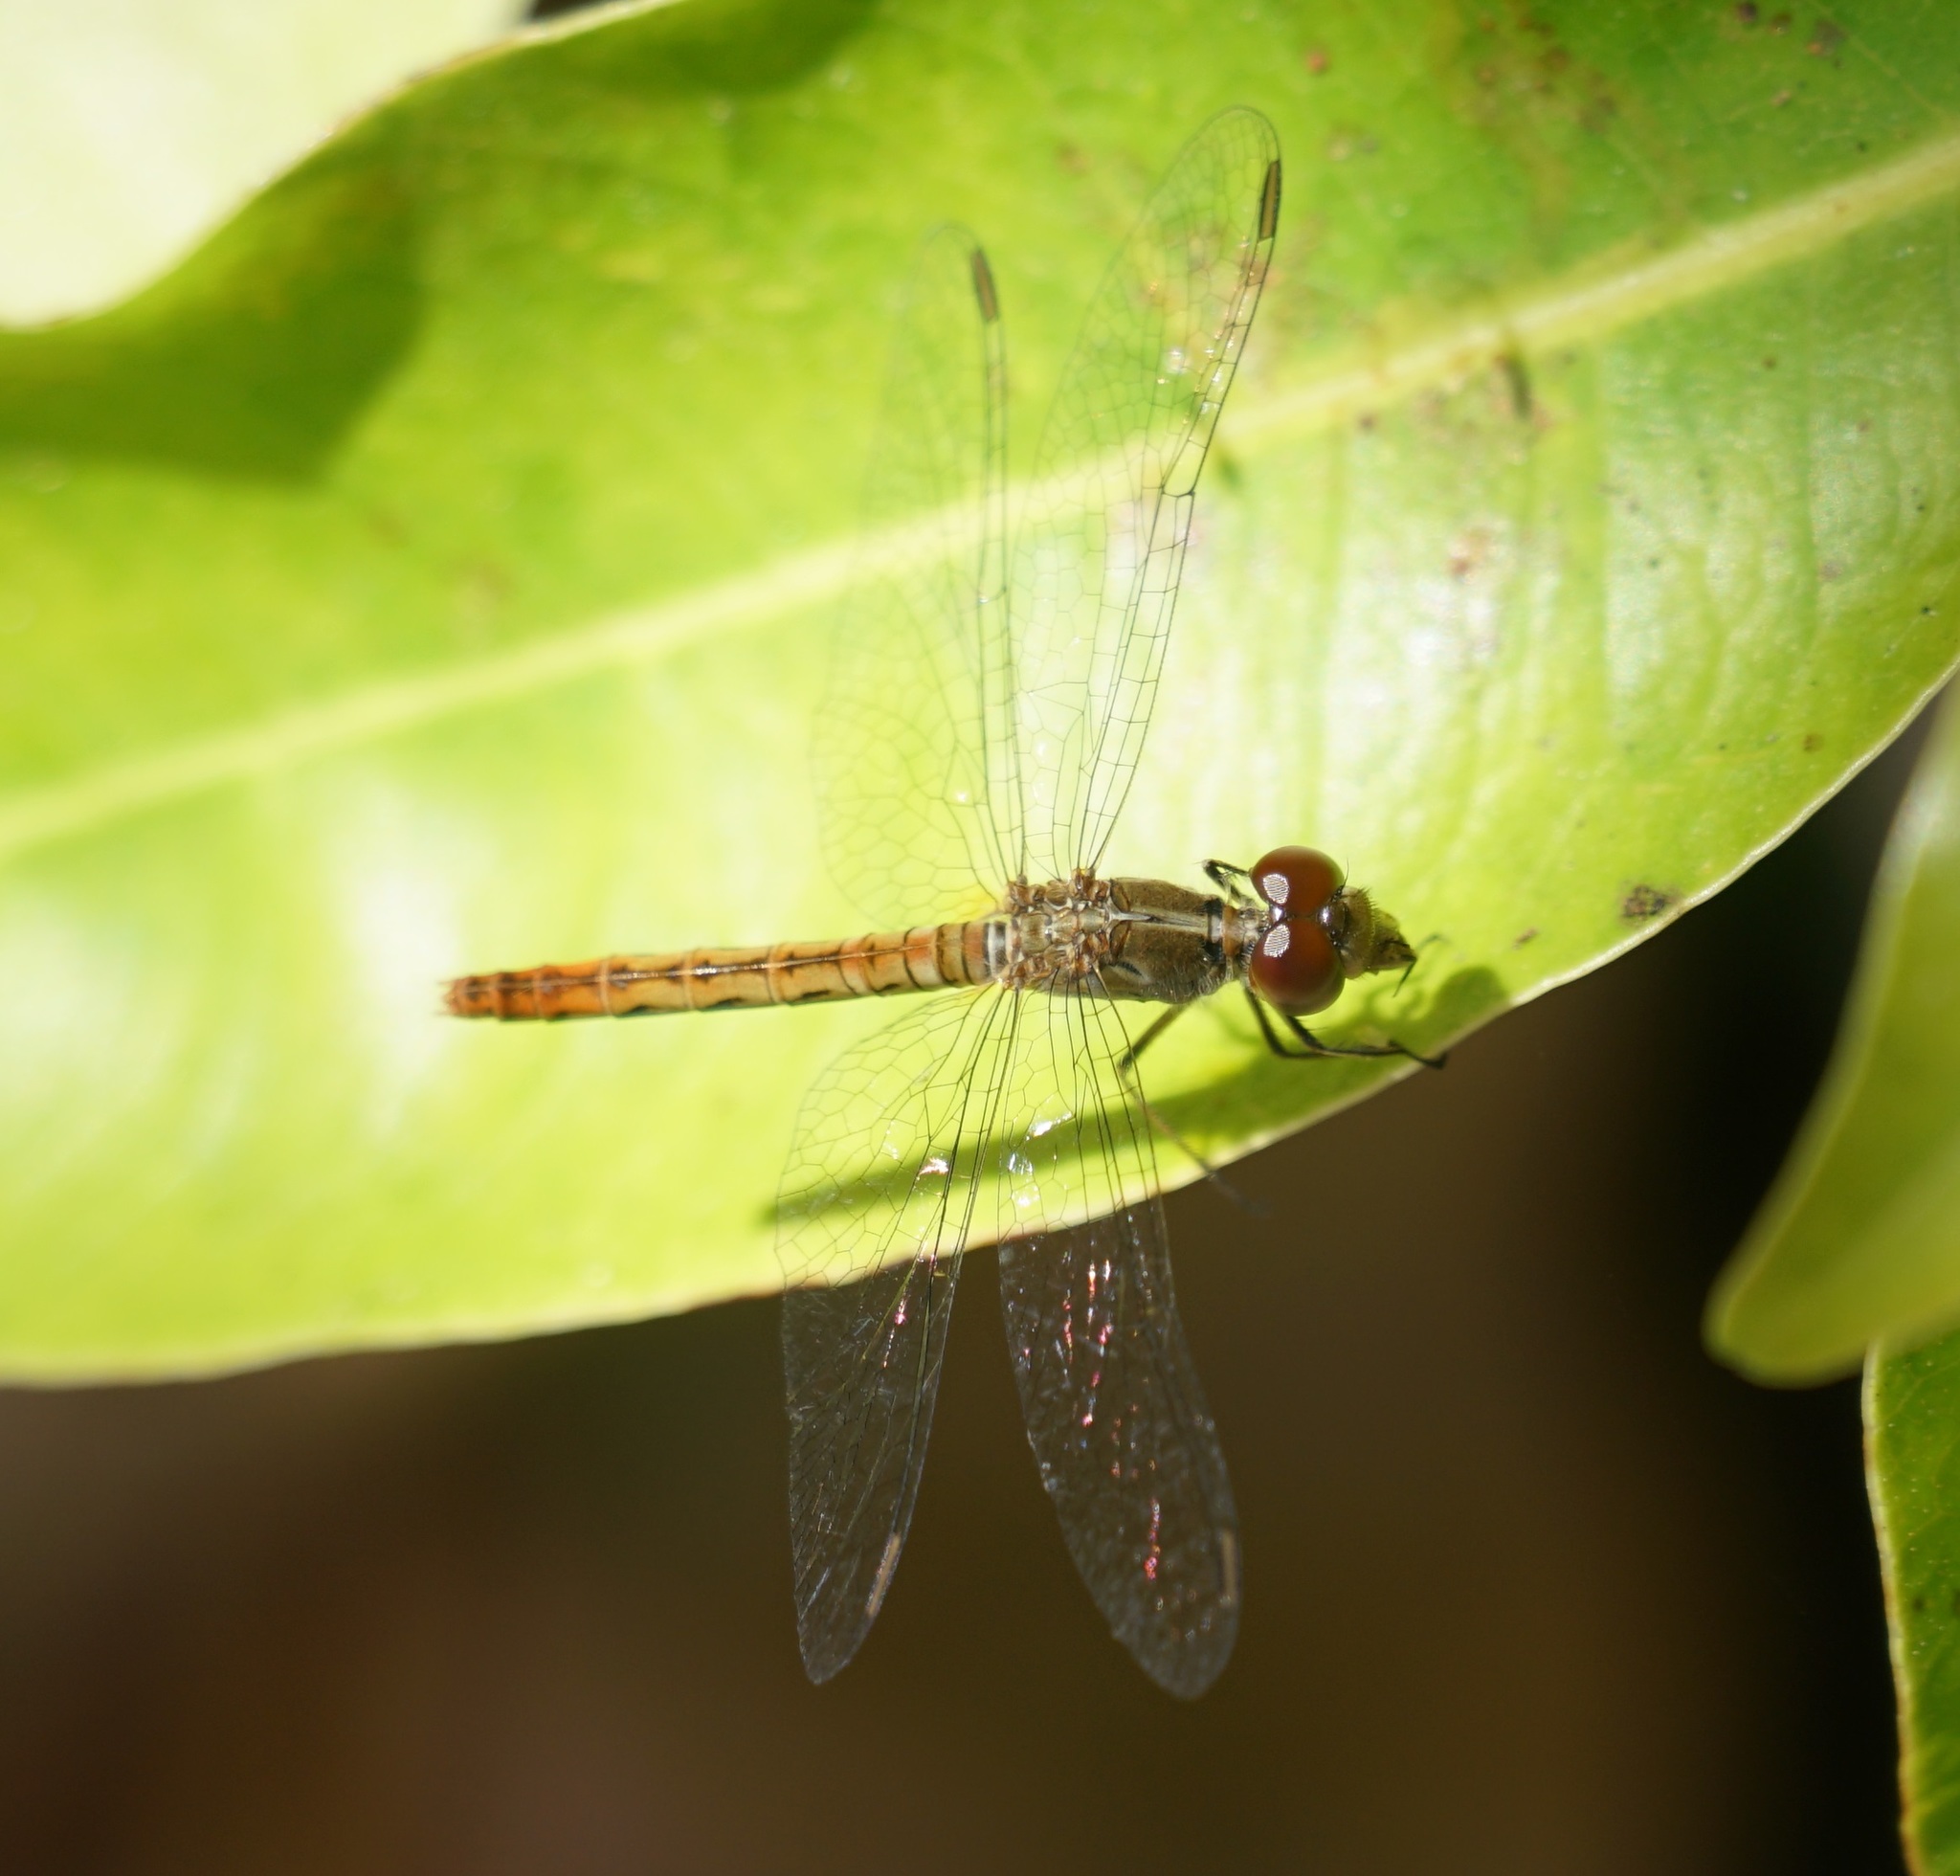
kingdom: Animalia
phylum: Arthropoda
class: Insecta
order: Odonata
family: Libellulidae
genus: Nannodiplax
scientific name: Nannodiplax rubra
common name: Pygmy percher
